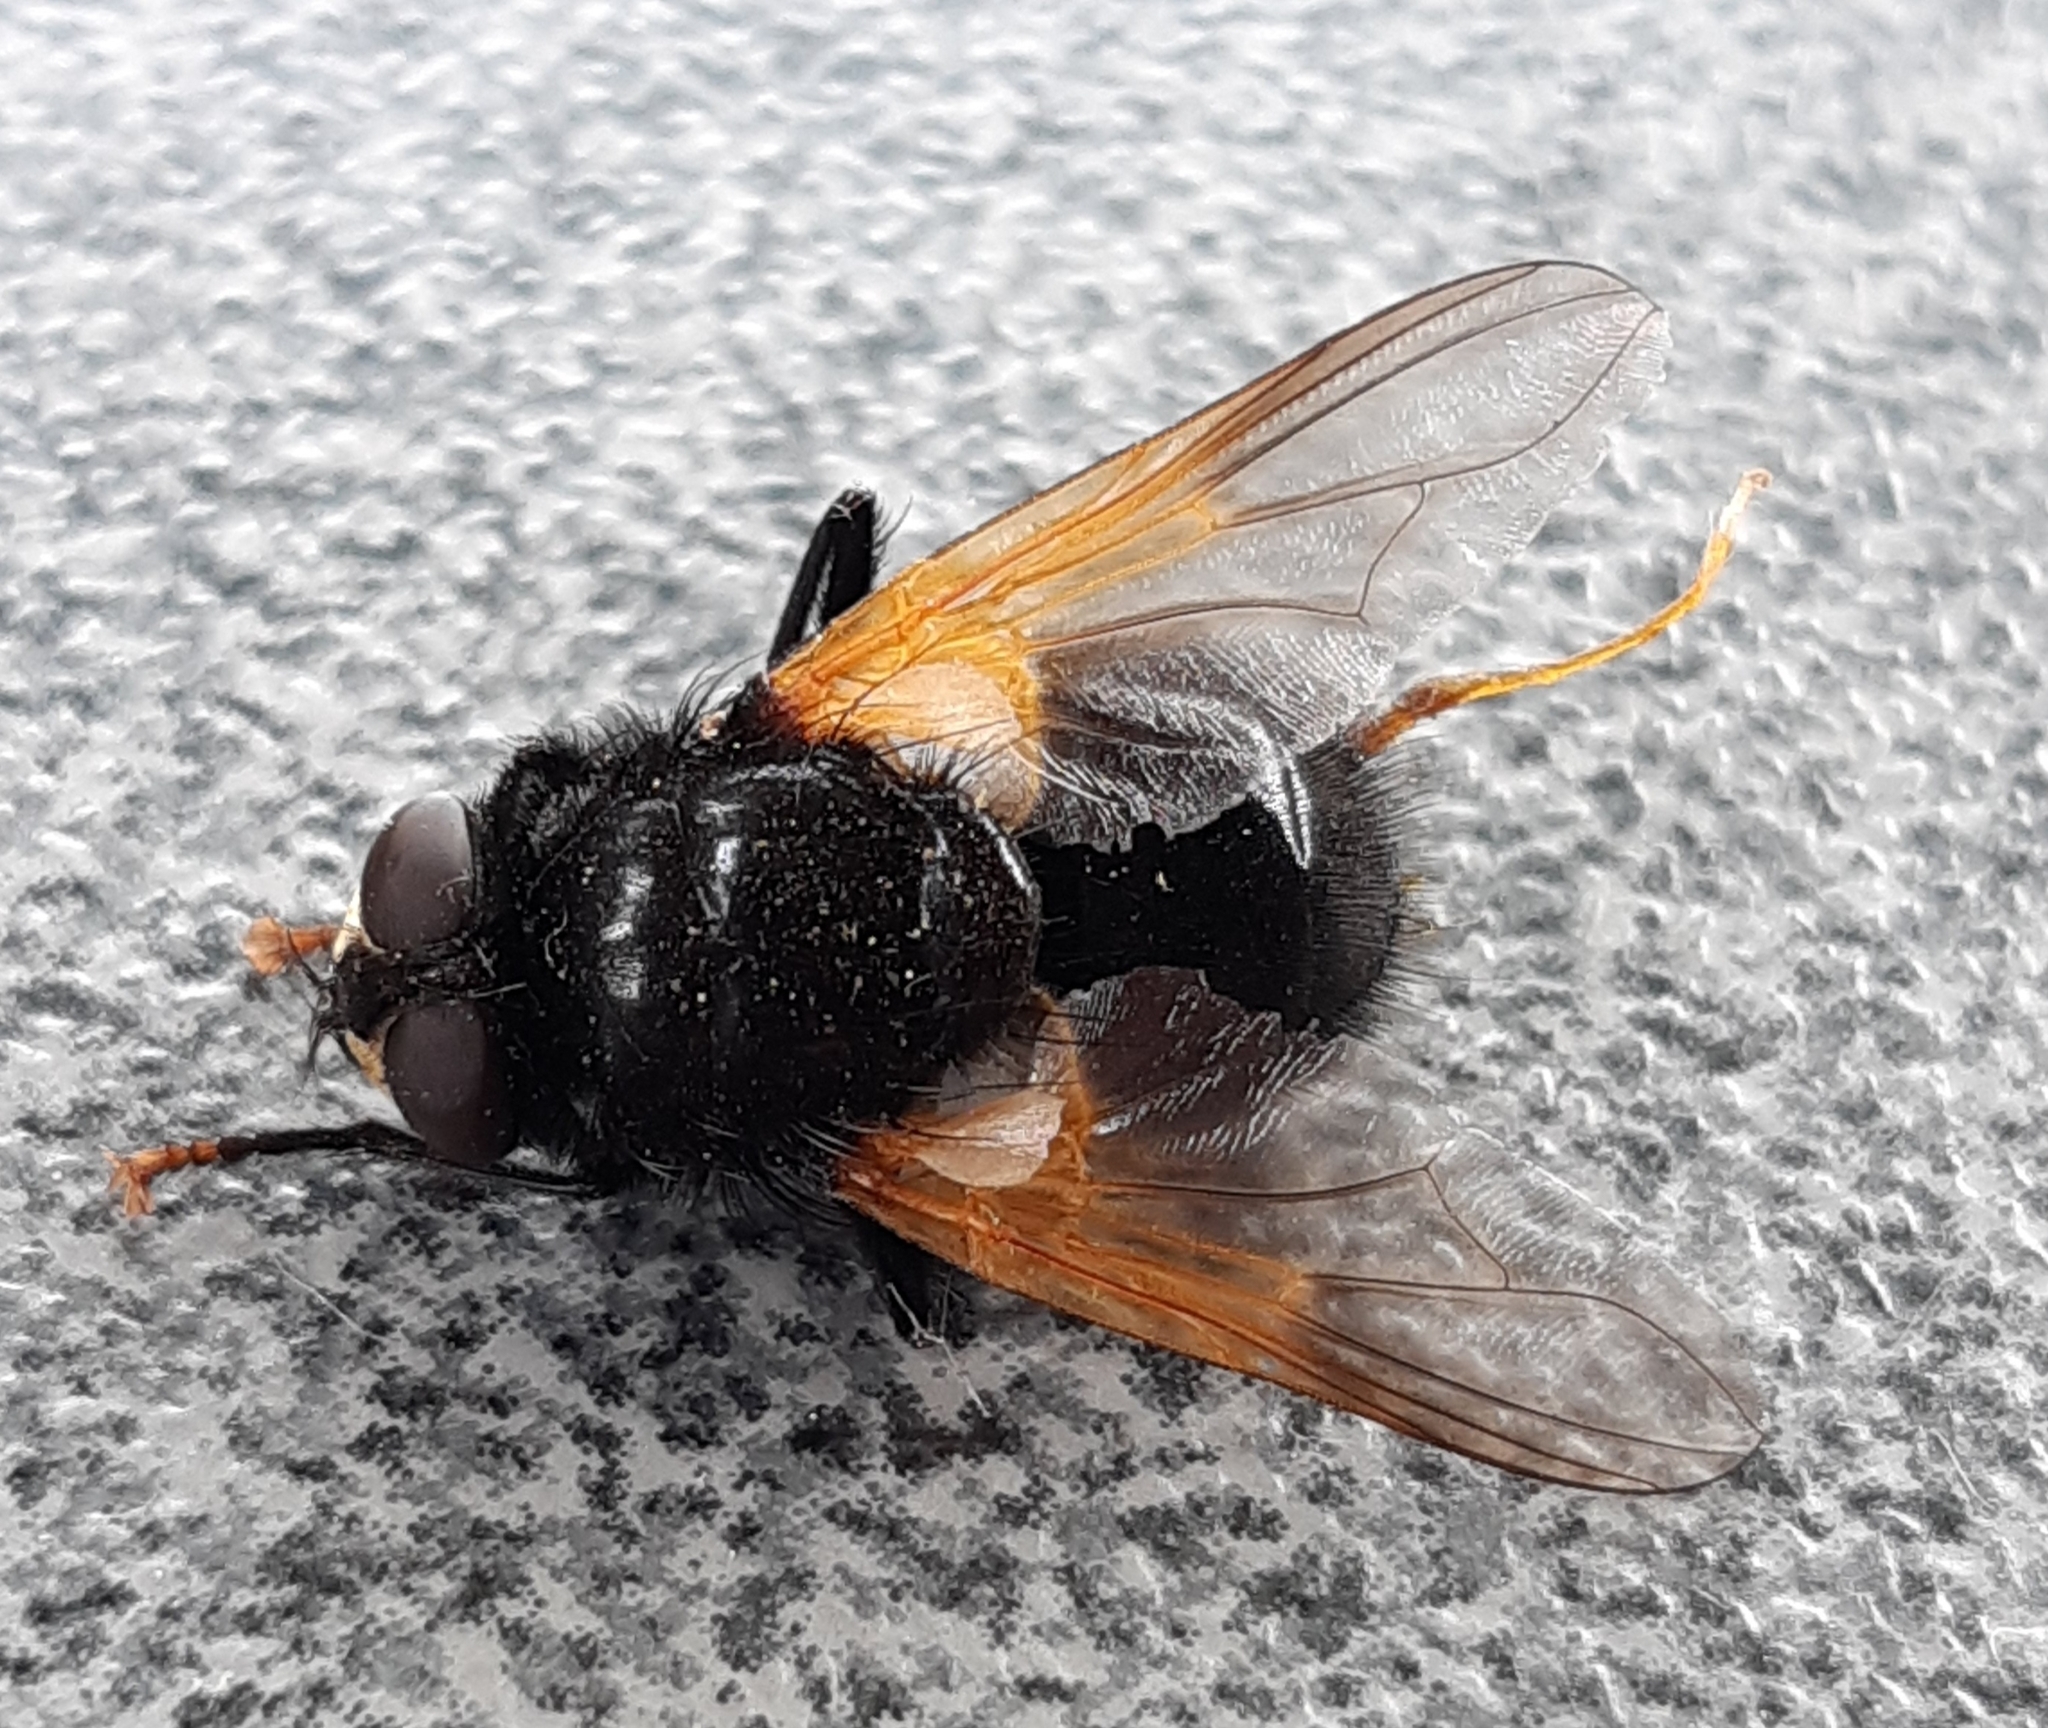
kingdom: Animalia
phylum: Arthropoda
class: Insecta
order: Diptera
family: Muscidae
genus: Mesembrina
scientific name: Mesembrina meridiana
